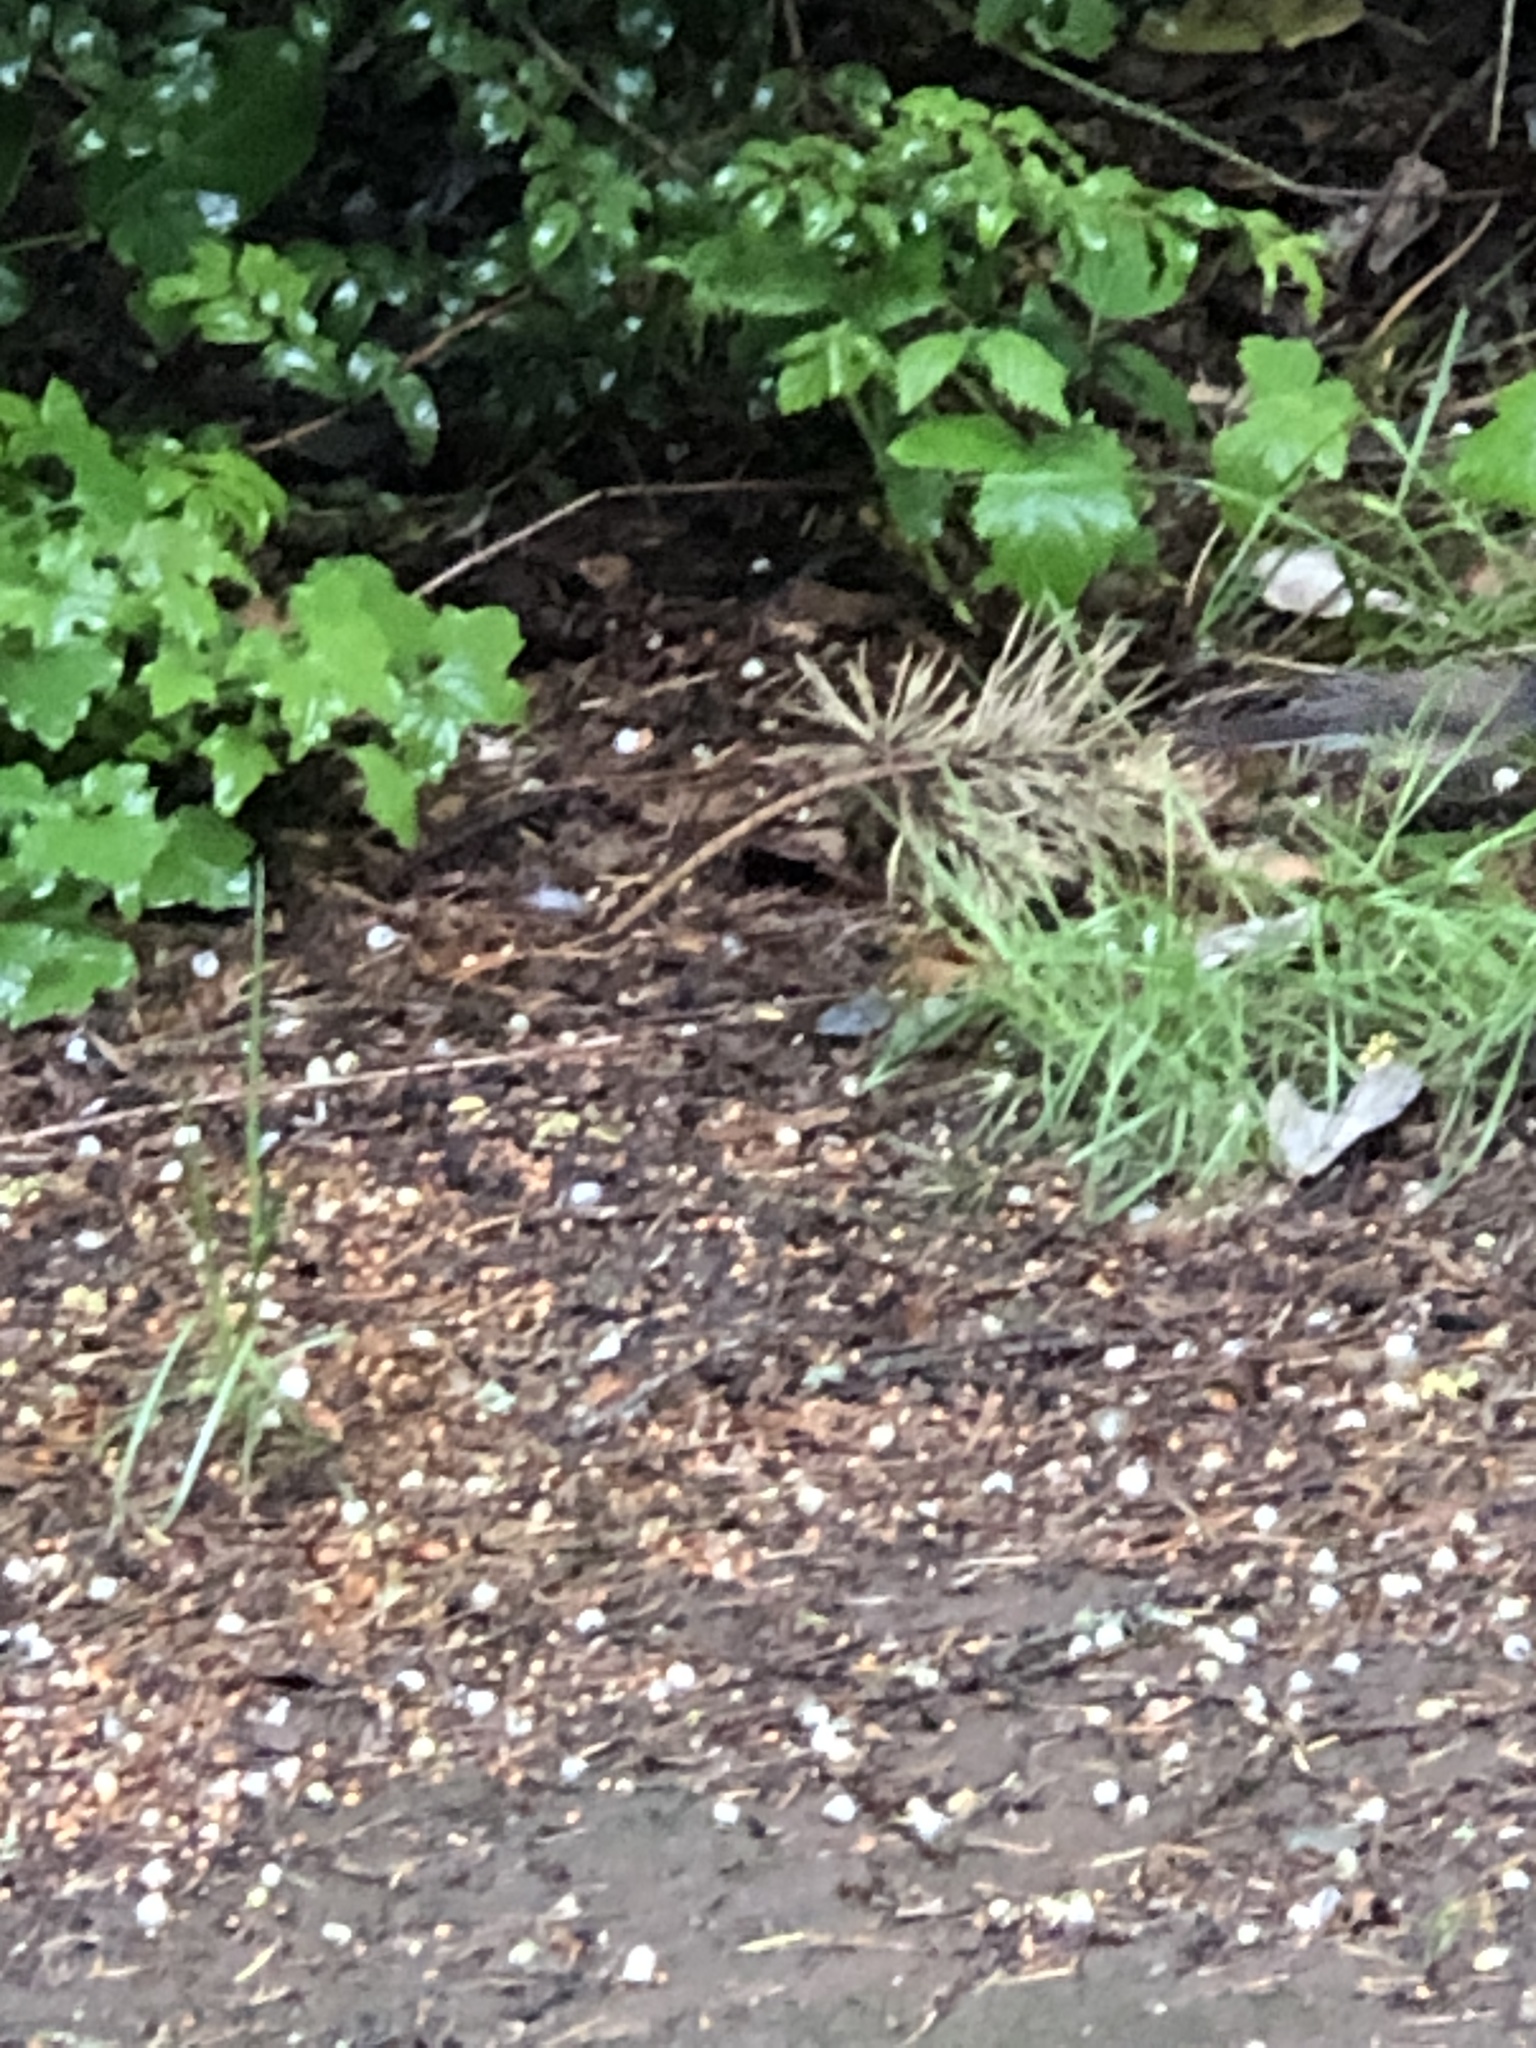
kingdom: Animalia
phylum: Chordata
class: Aves
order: Passeriformes
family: Passerellidae
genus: Junco
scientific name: Junco hyemalis
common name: Dark-eyed junco
